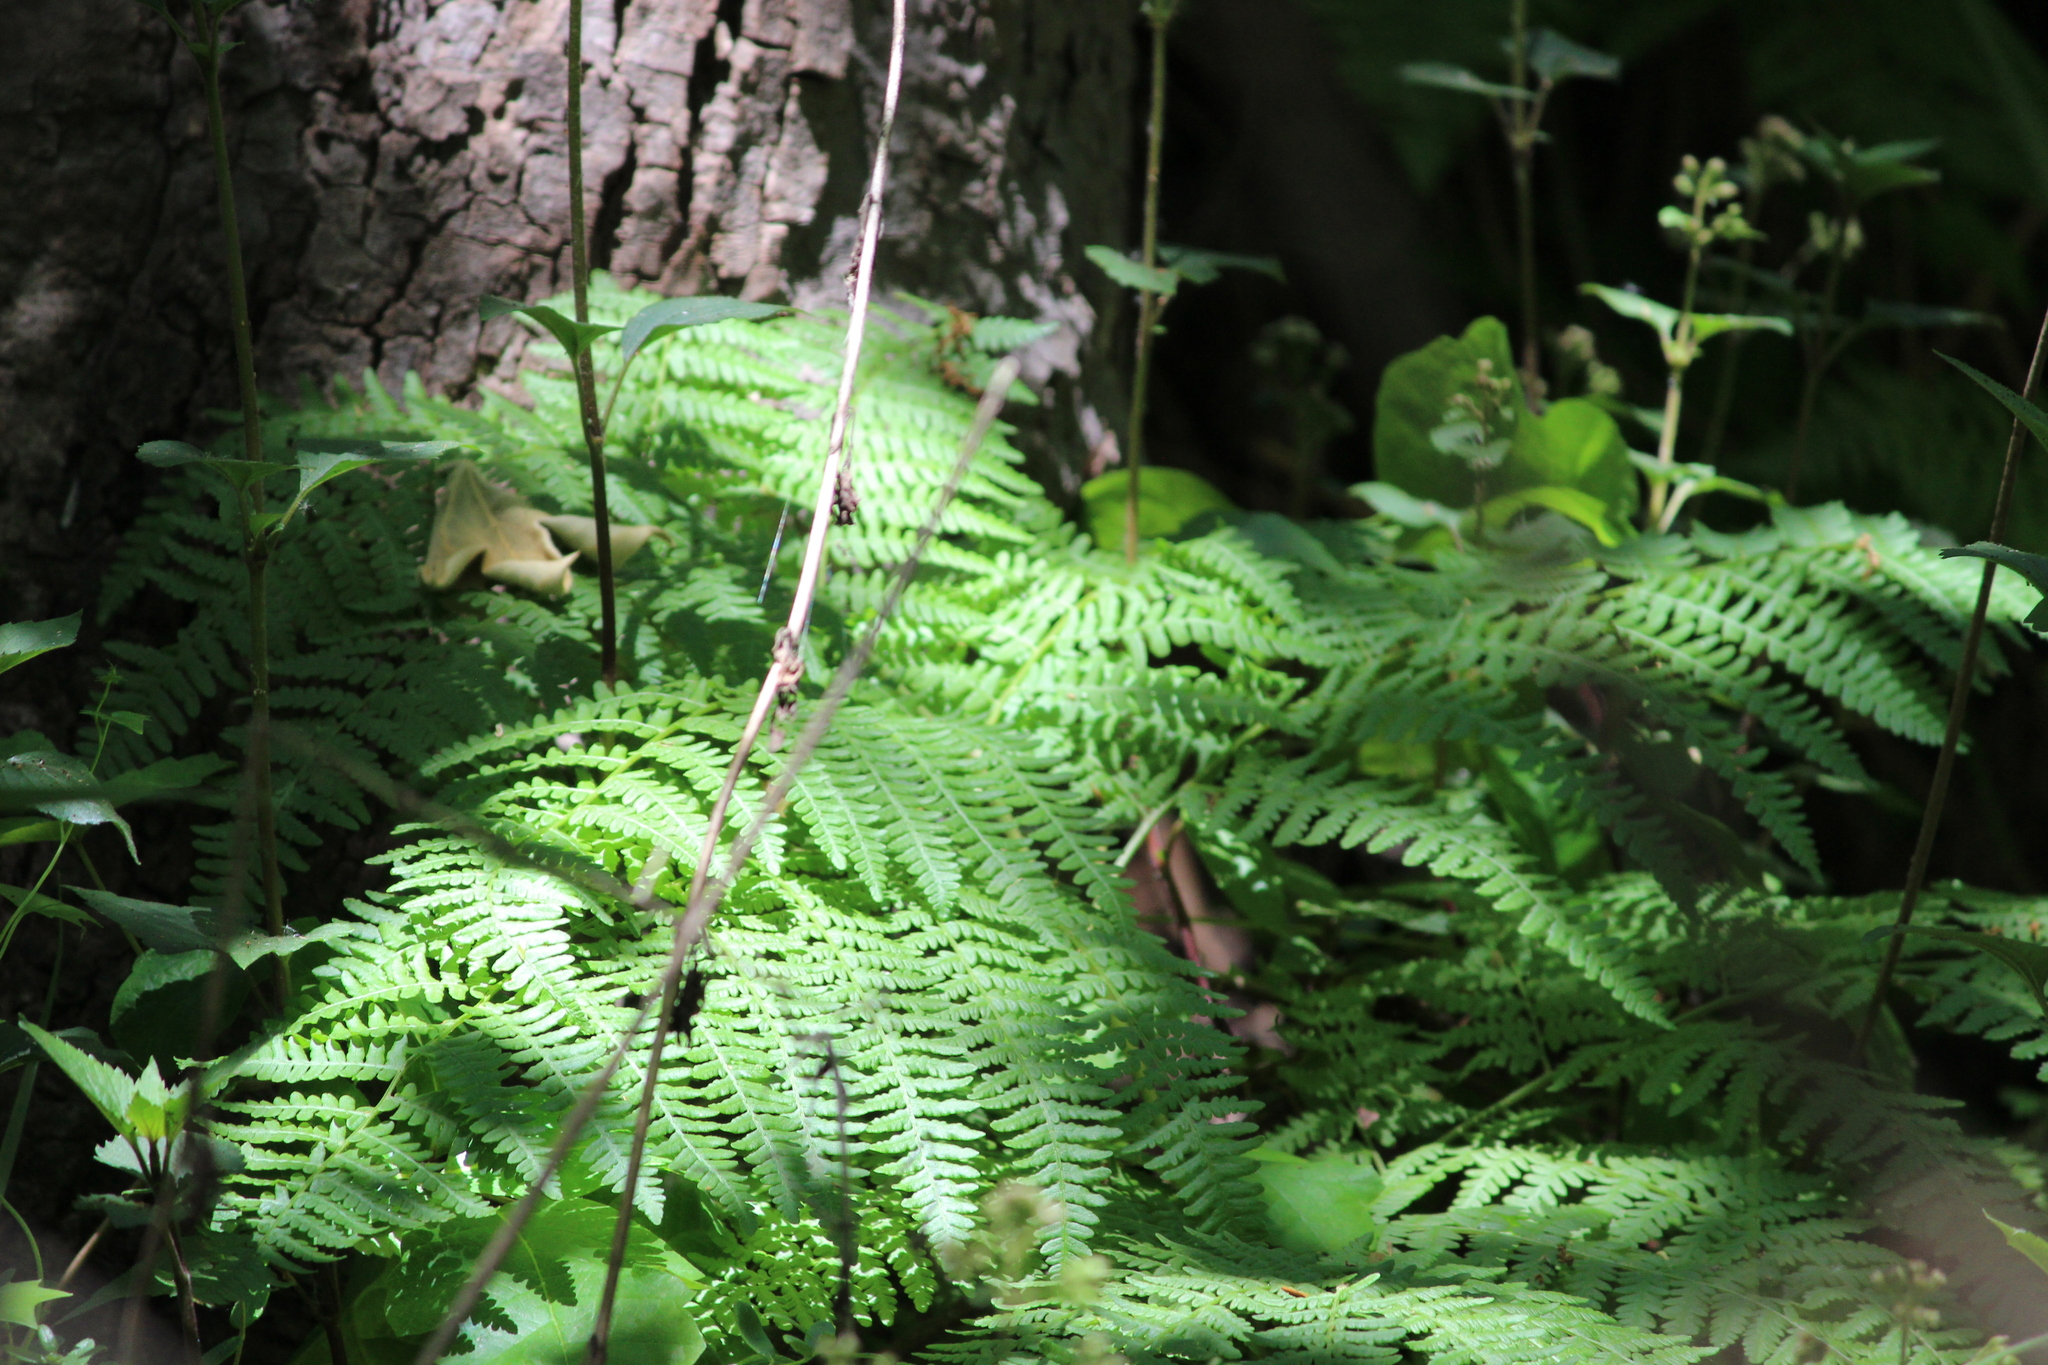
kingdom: Plantae
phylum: Tracheophyta
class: Polypodiopsida
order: Polypodiales
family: Dennstaedtiaceae
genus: Pteridium
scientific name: Pteridium aquilinum
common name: Bracken
